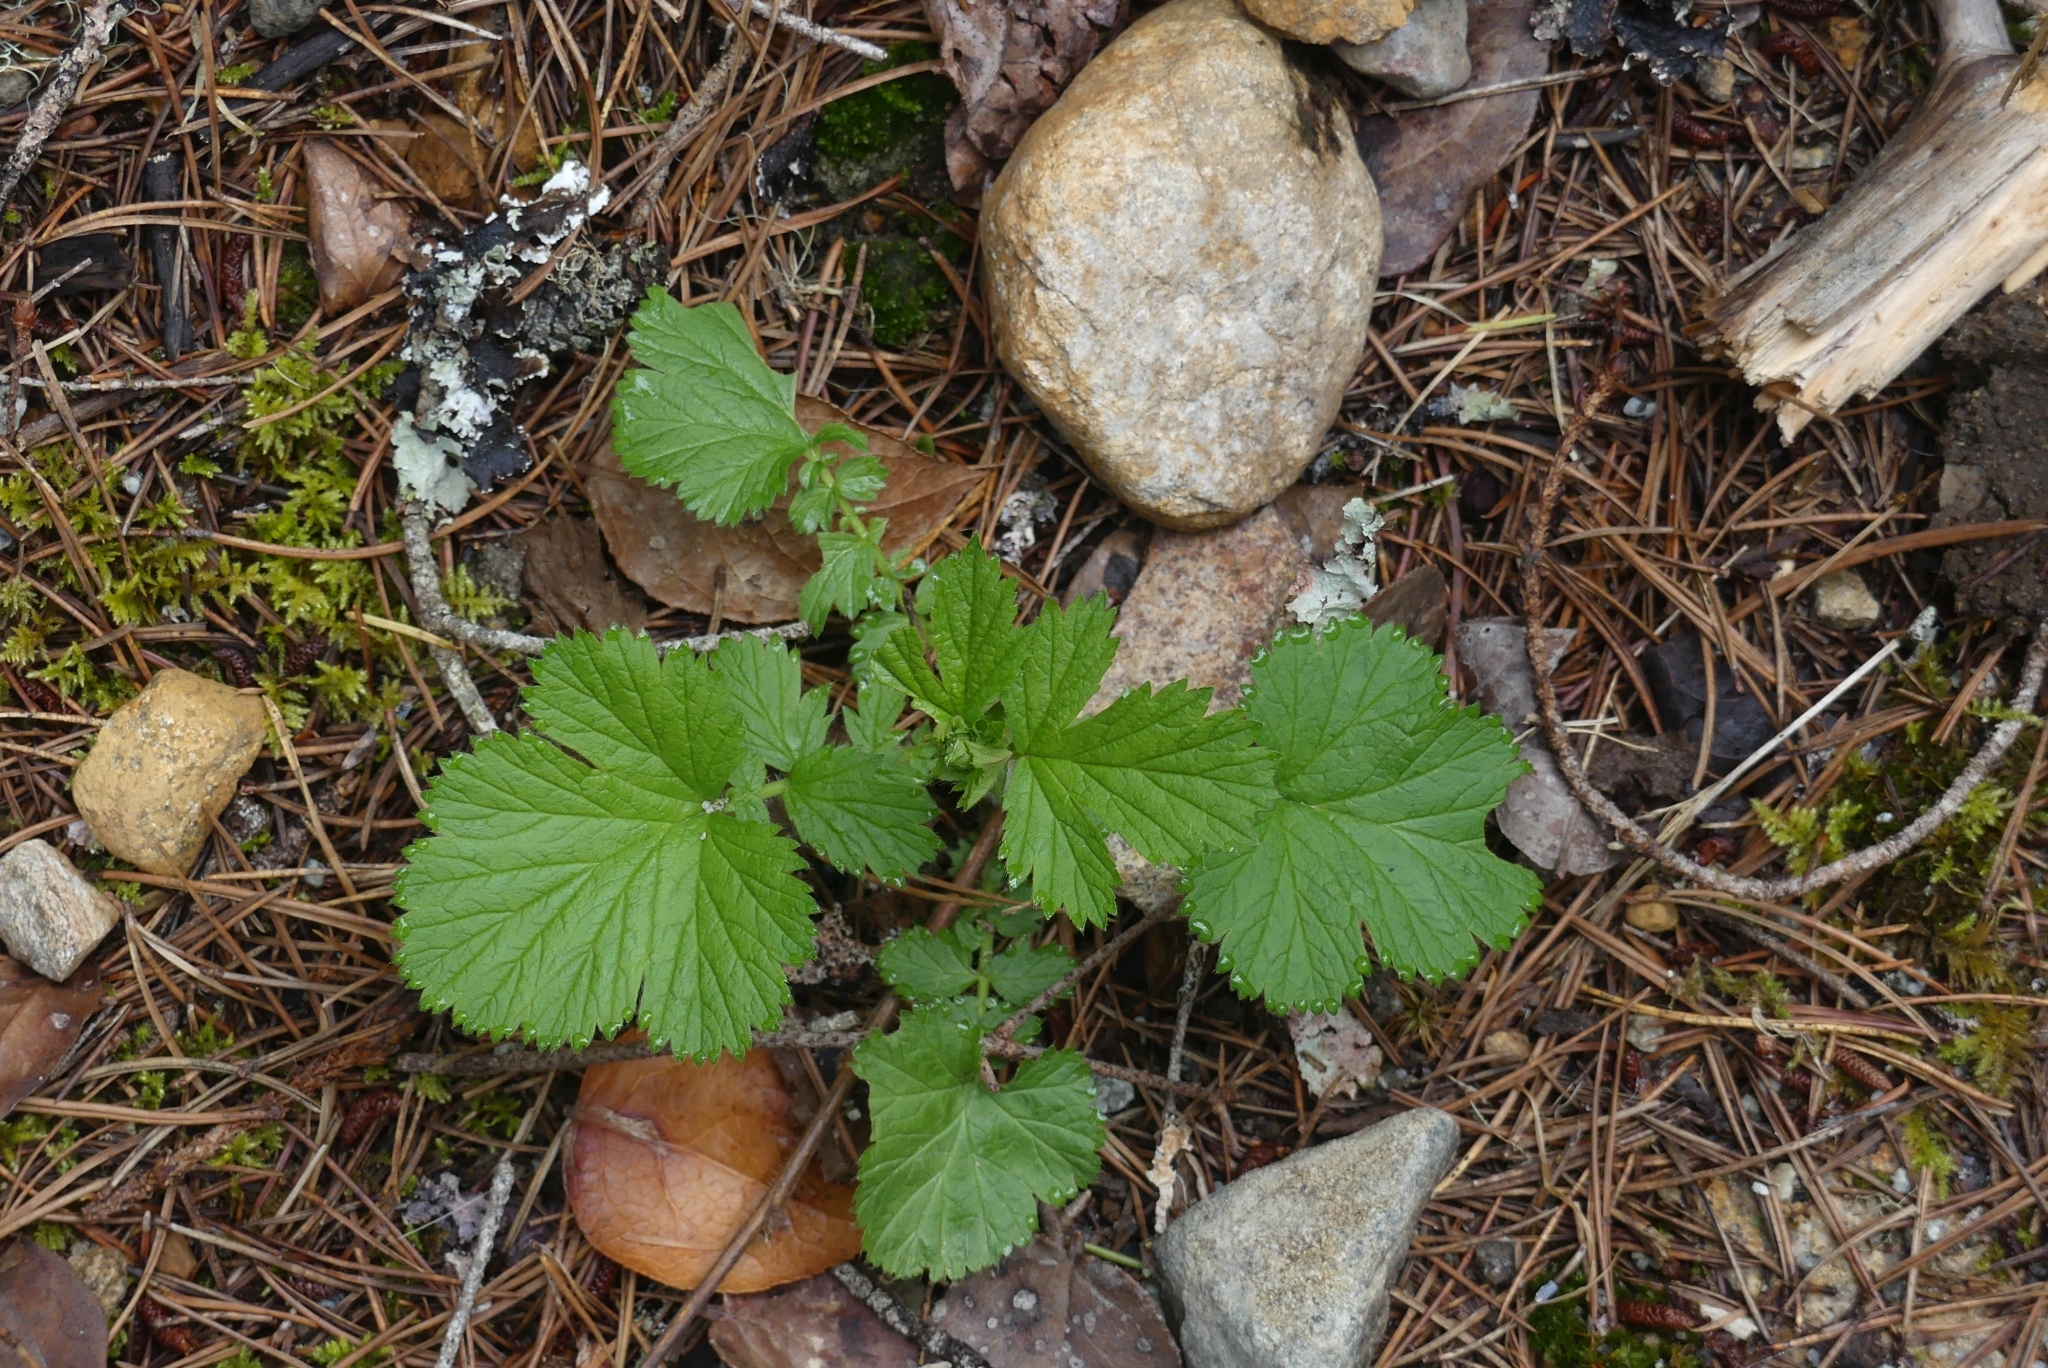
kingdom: Plantae
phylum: Tracheophyta
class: Magnoliopsida
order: Rosales
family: Rosaceae
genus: Geum
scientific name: Geum macrophyllum
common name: Large-leaved avens
